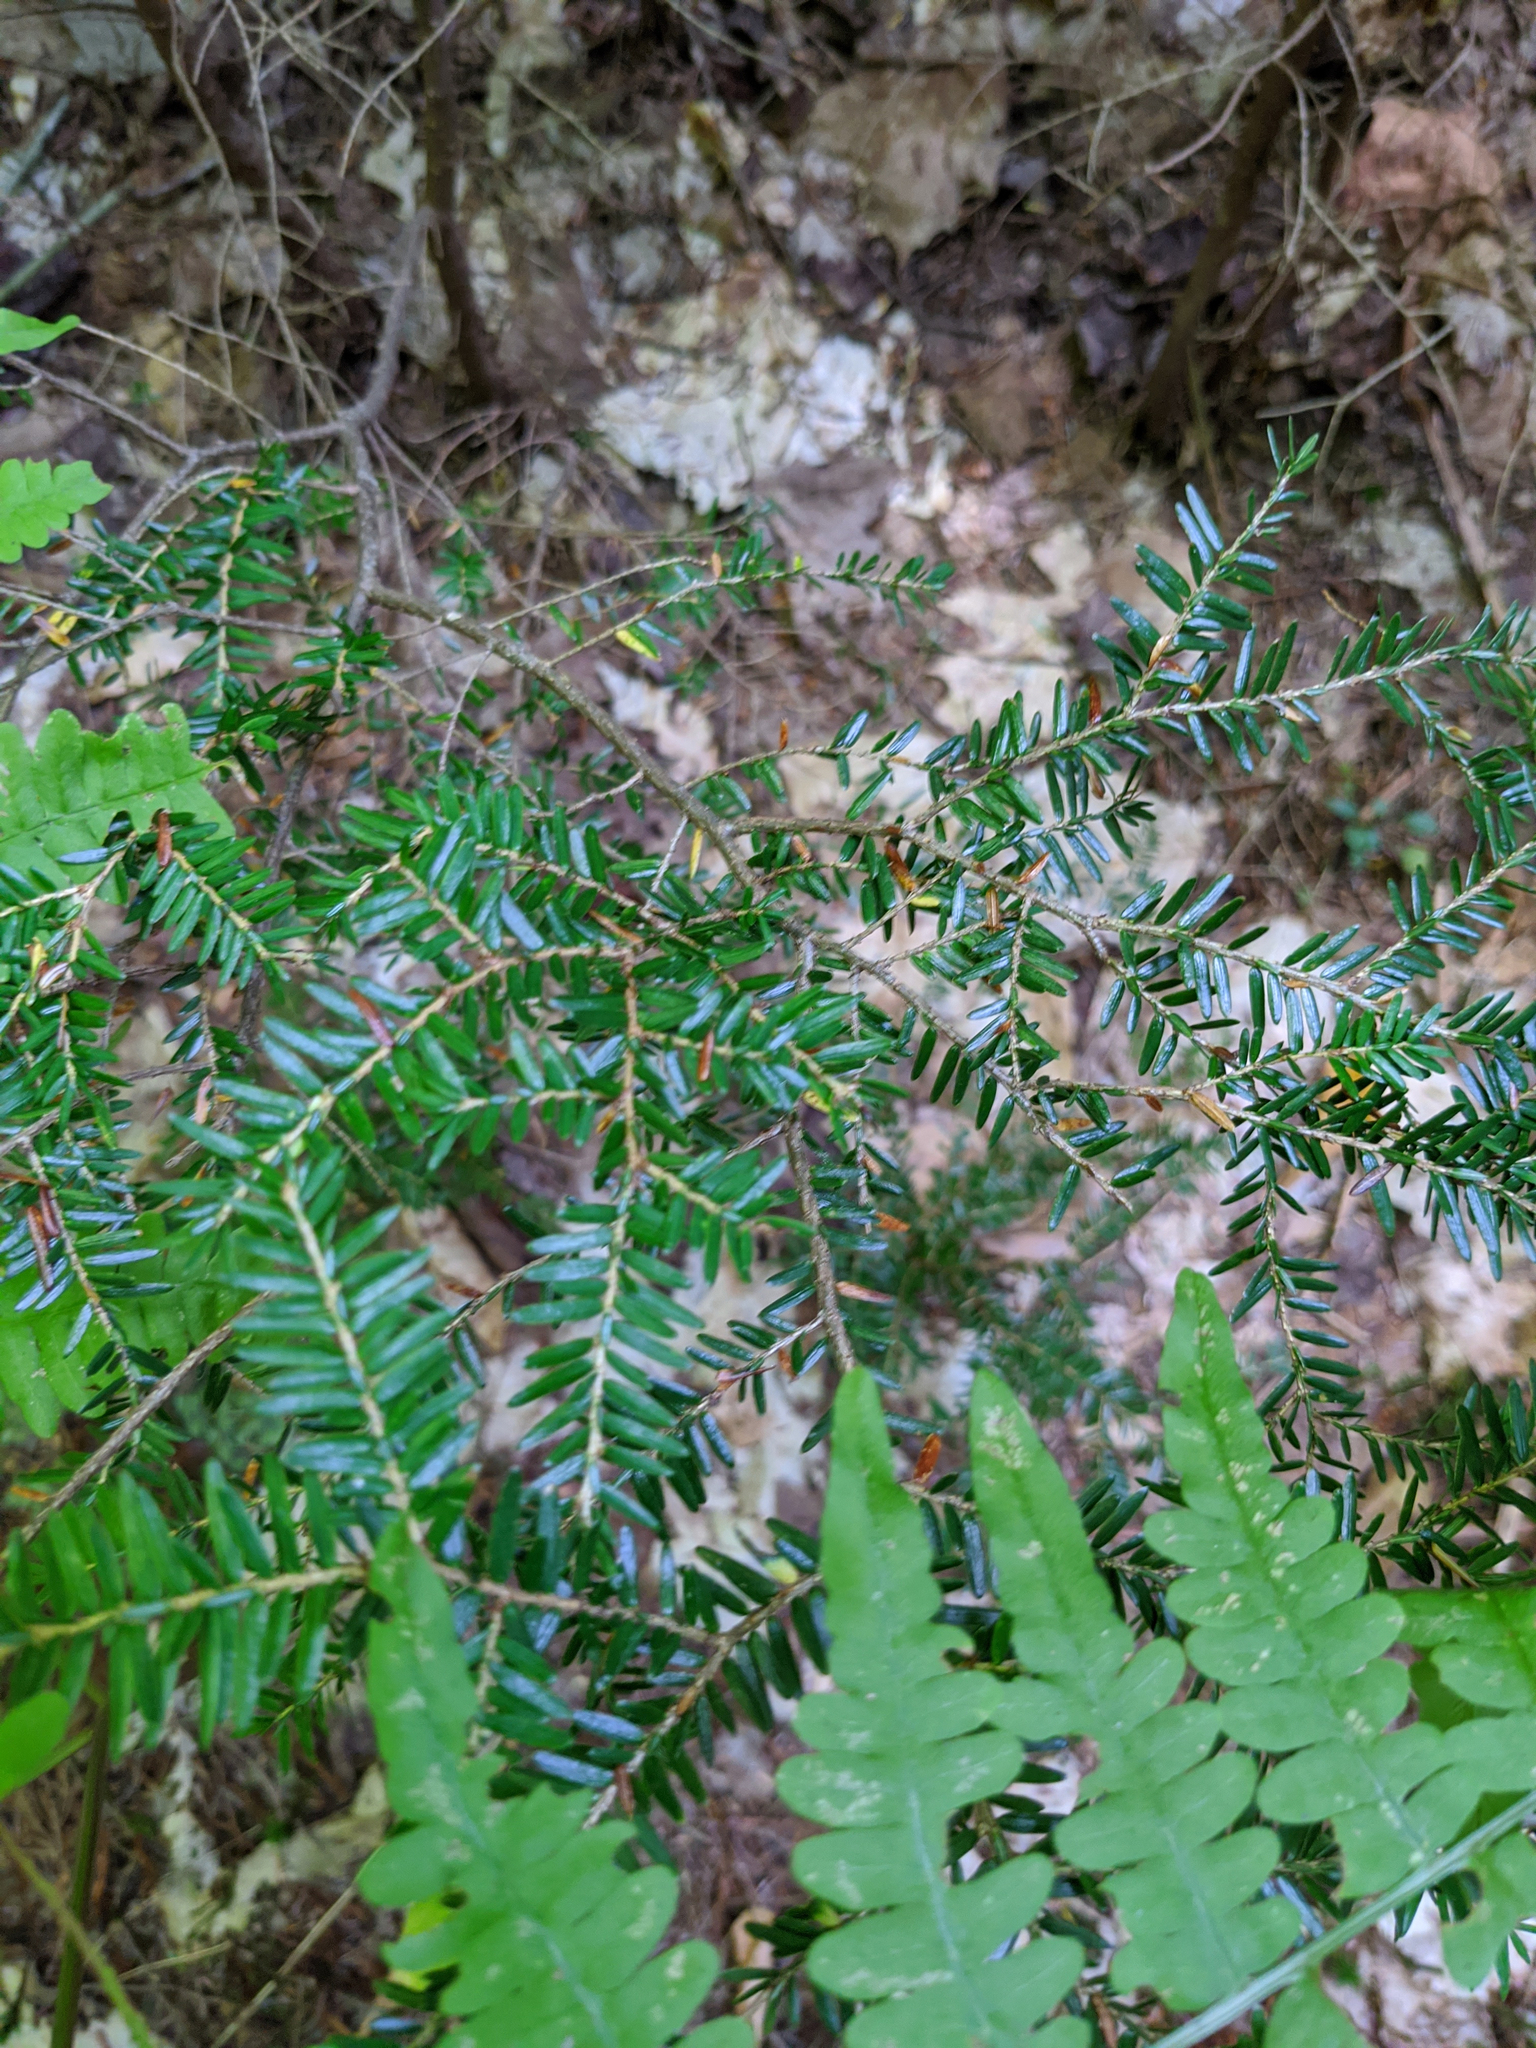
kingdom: Plantae
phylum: Tracheophyta
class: Pinopsida
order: Pinales
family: Pinaceae
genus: Tsuga
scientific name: Tsuga canadensis
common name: Eastern hemlock
